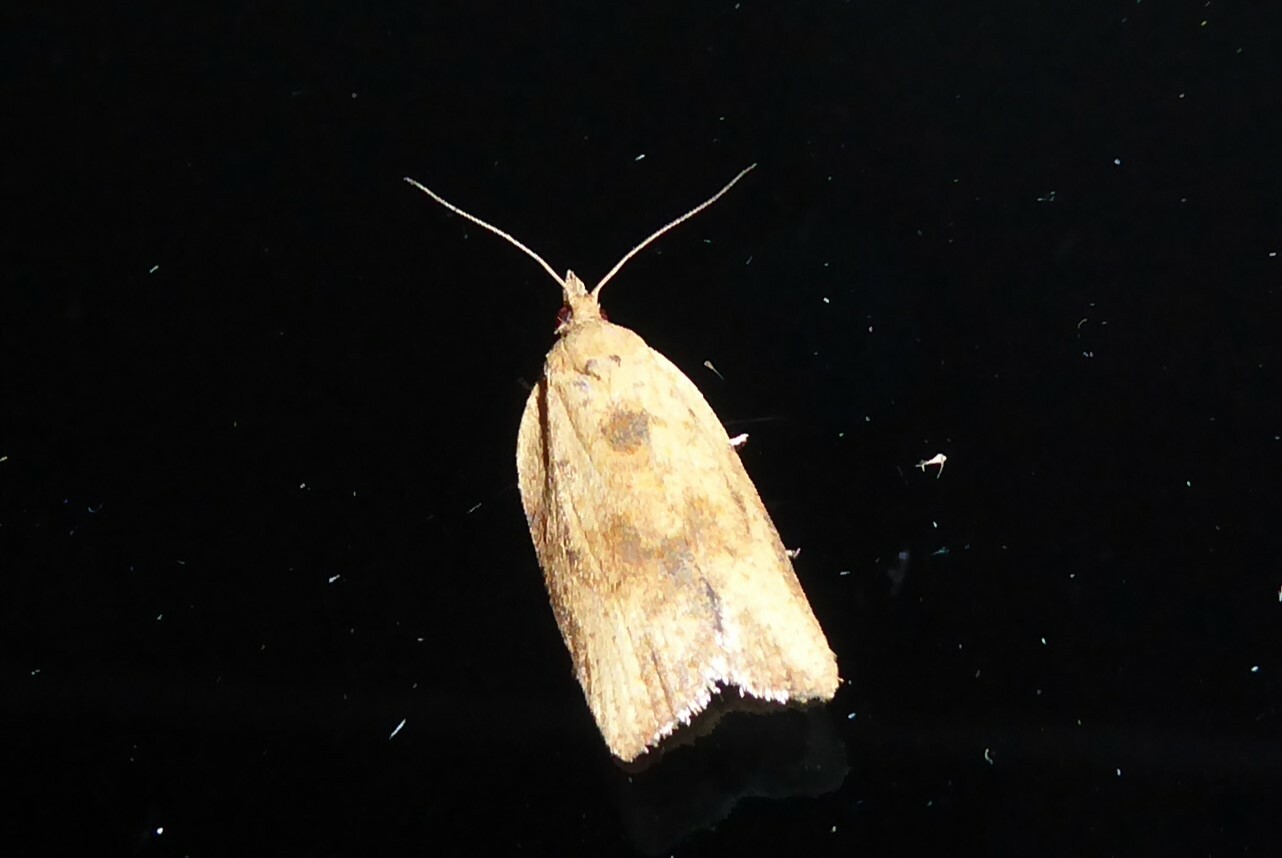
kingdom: Animalia
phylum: Arthropoda
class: Insecta
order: Lepidoptera
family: Tortricidae
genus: Epiphyas
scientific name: Epiphyas postvittana
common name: Light brown apple moth
